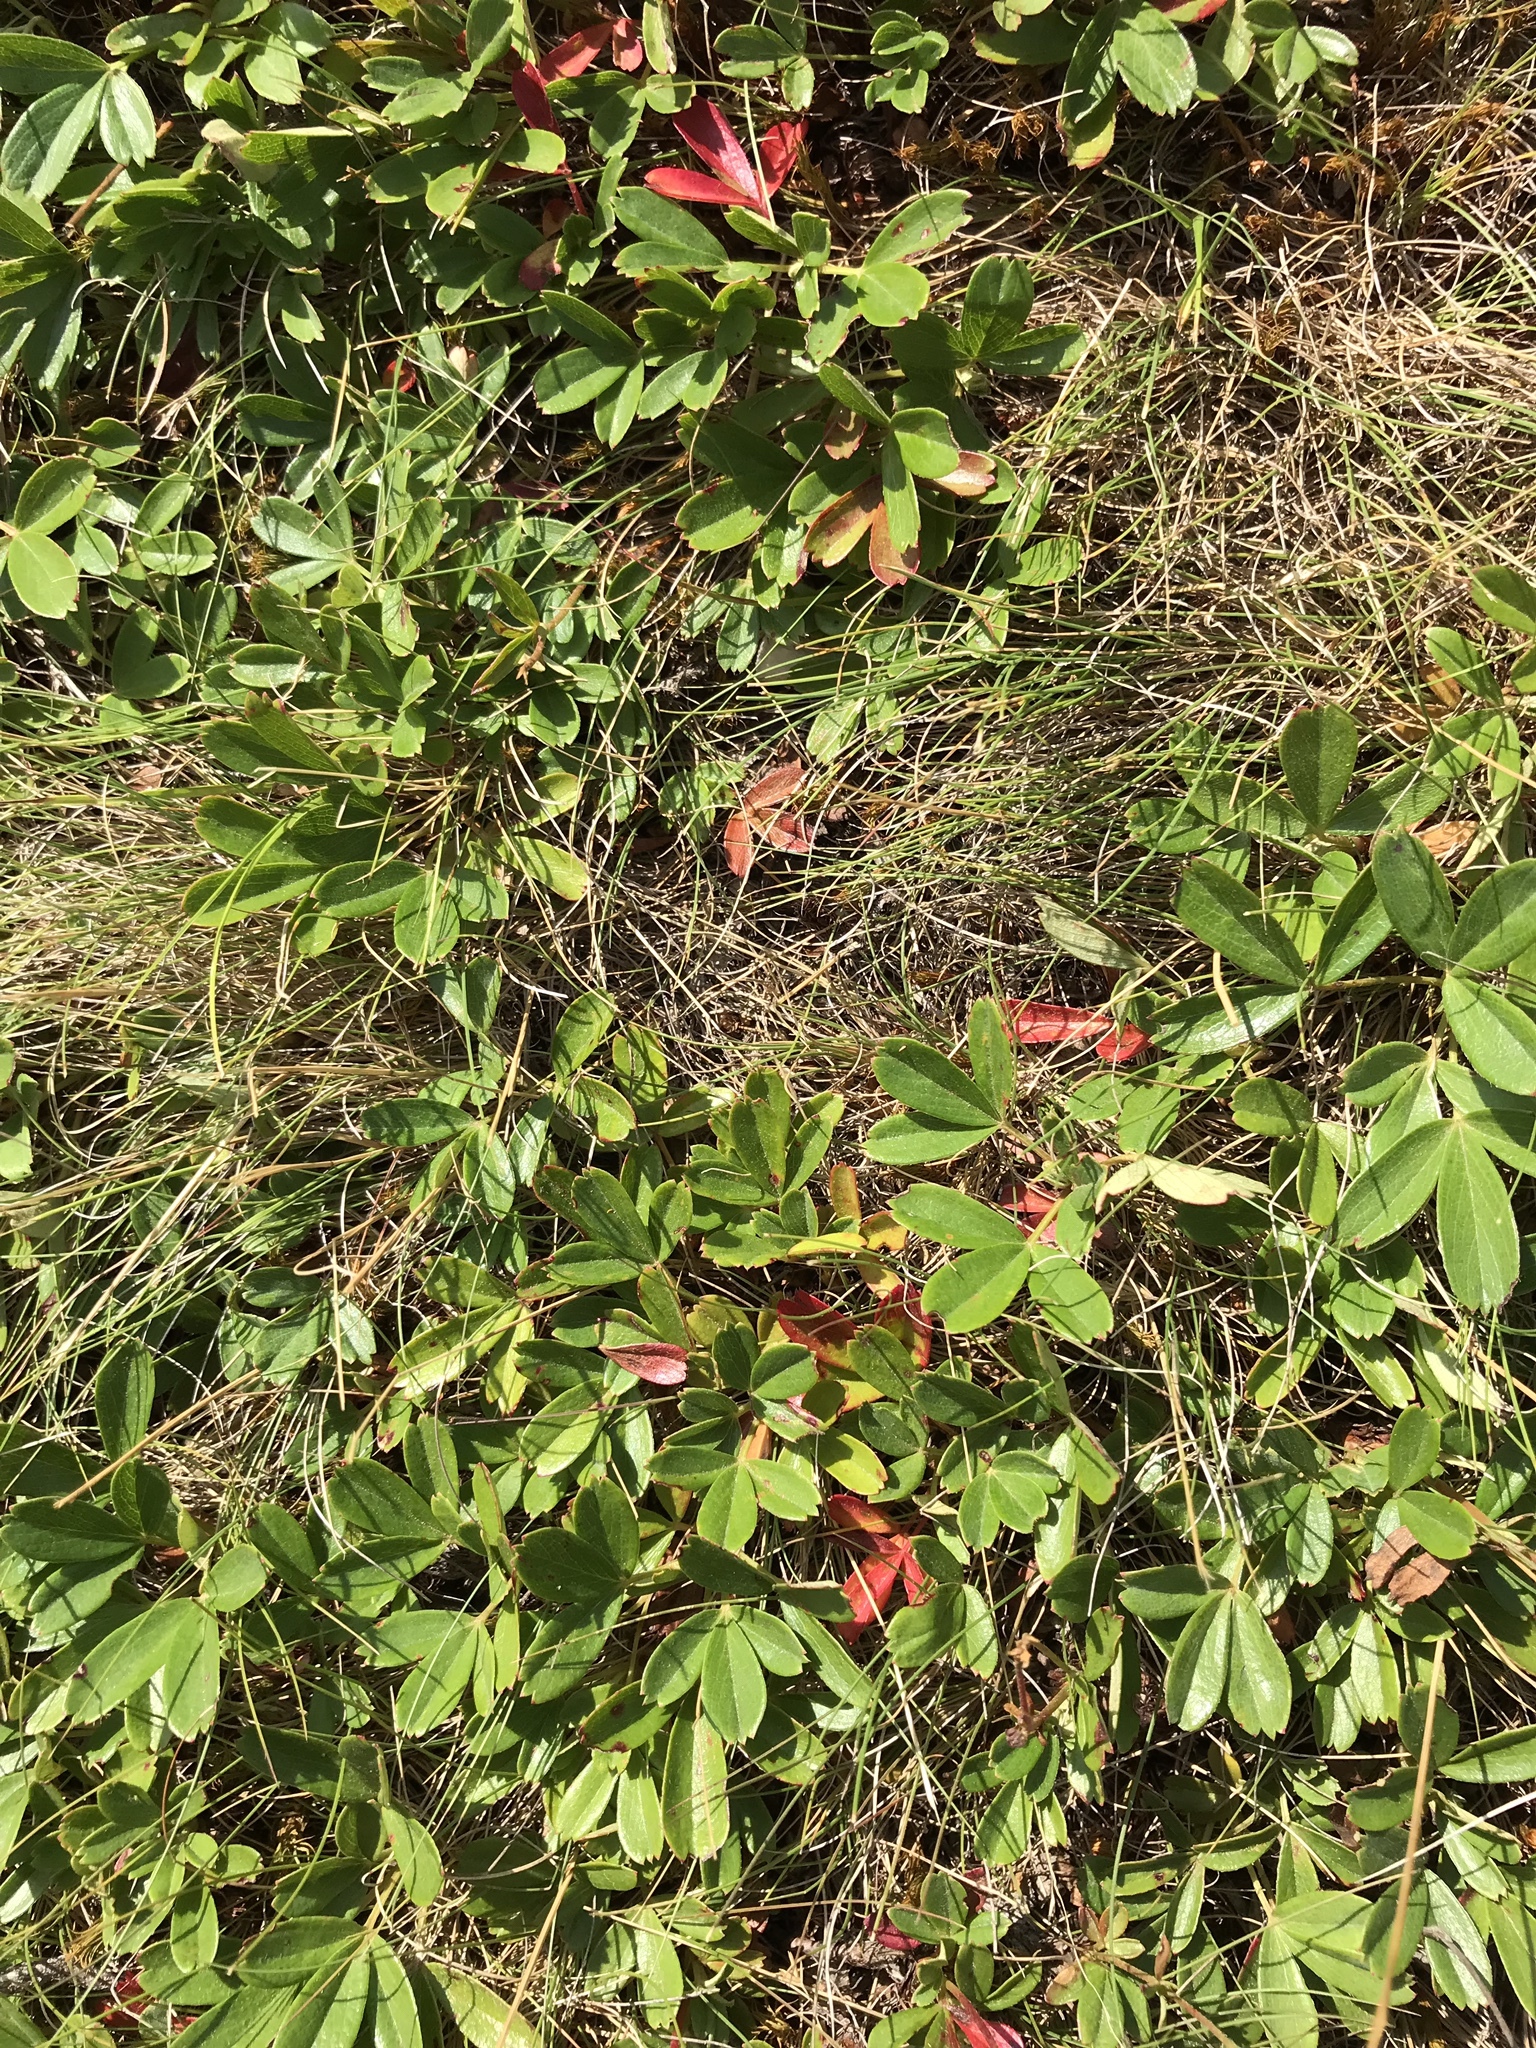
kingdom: Plantae
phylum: Tracheophyta
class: Magnoliopsida
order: Rosales
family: Rosaceae
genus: Sibbaldia
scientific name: Sibbaldia tridentata
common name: Three-toothed cinquefoil
